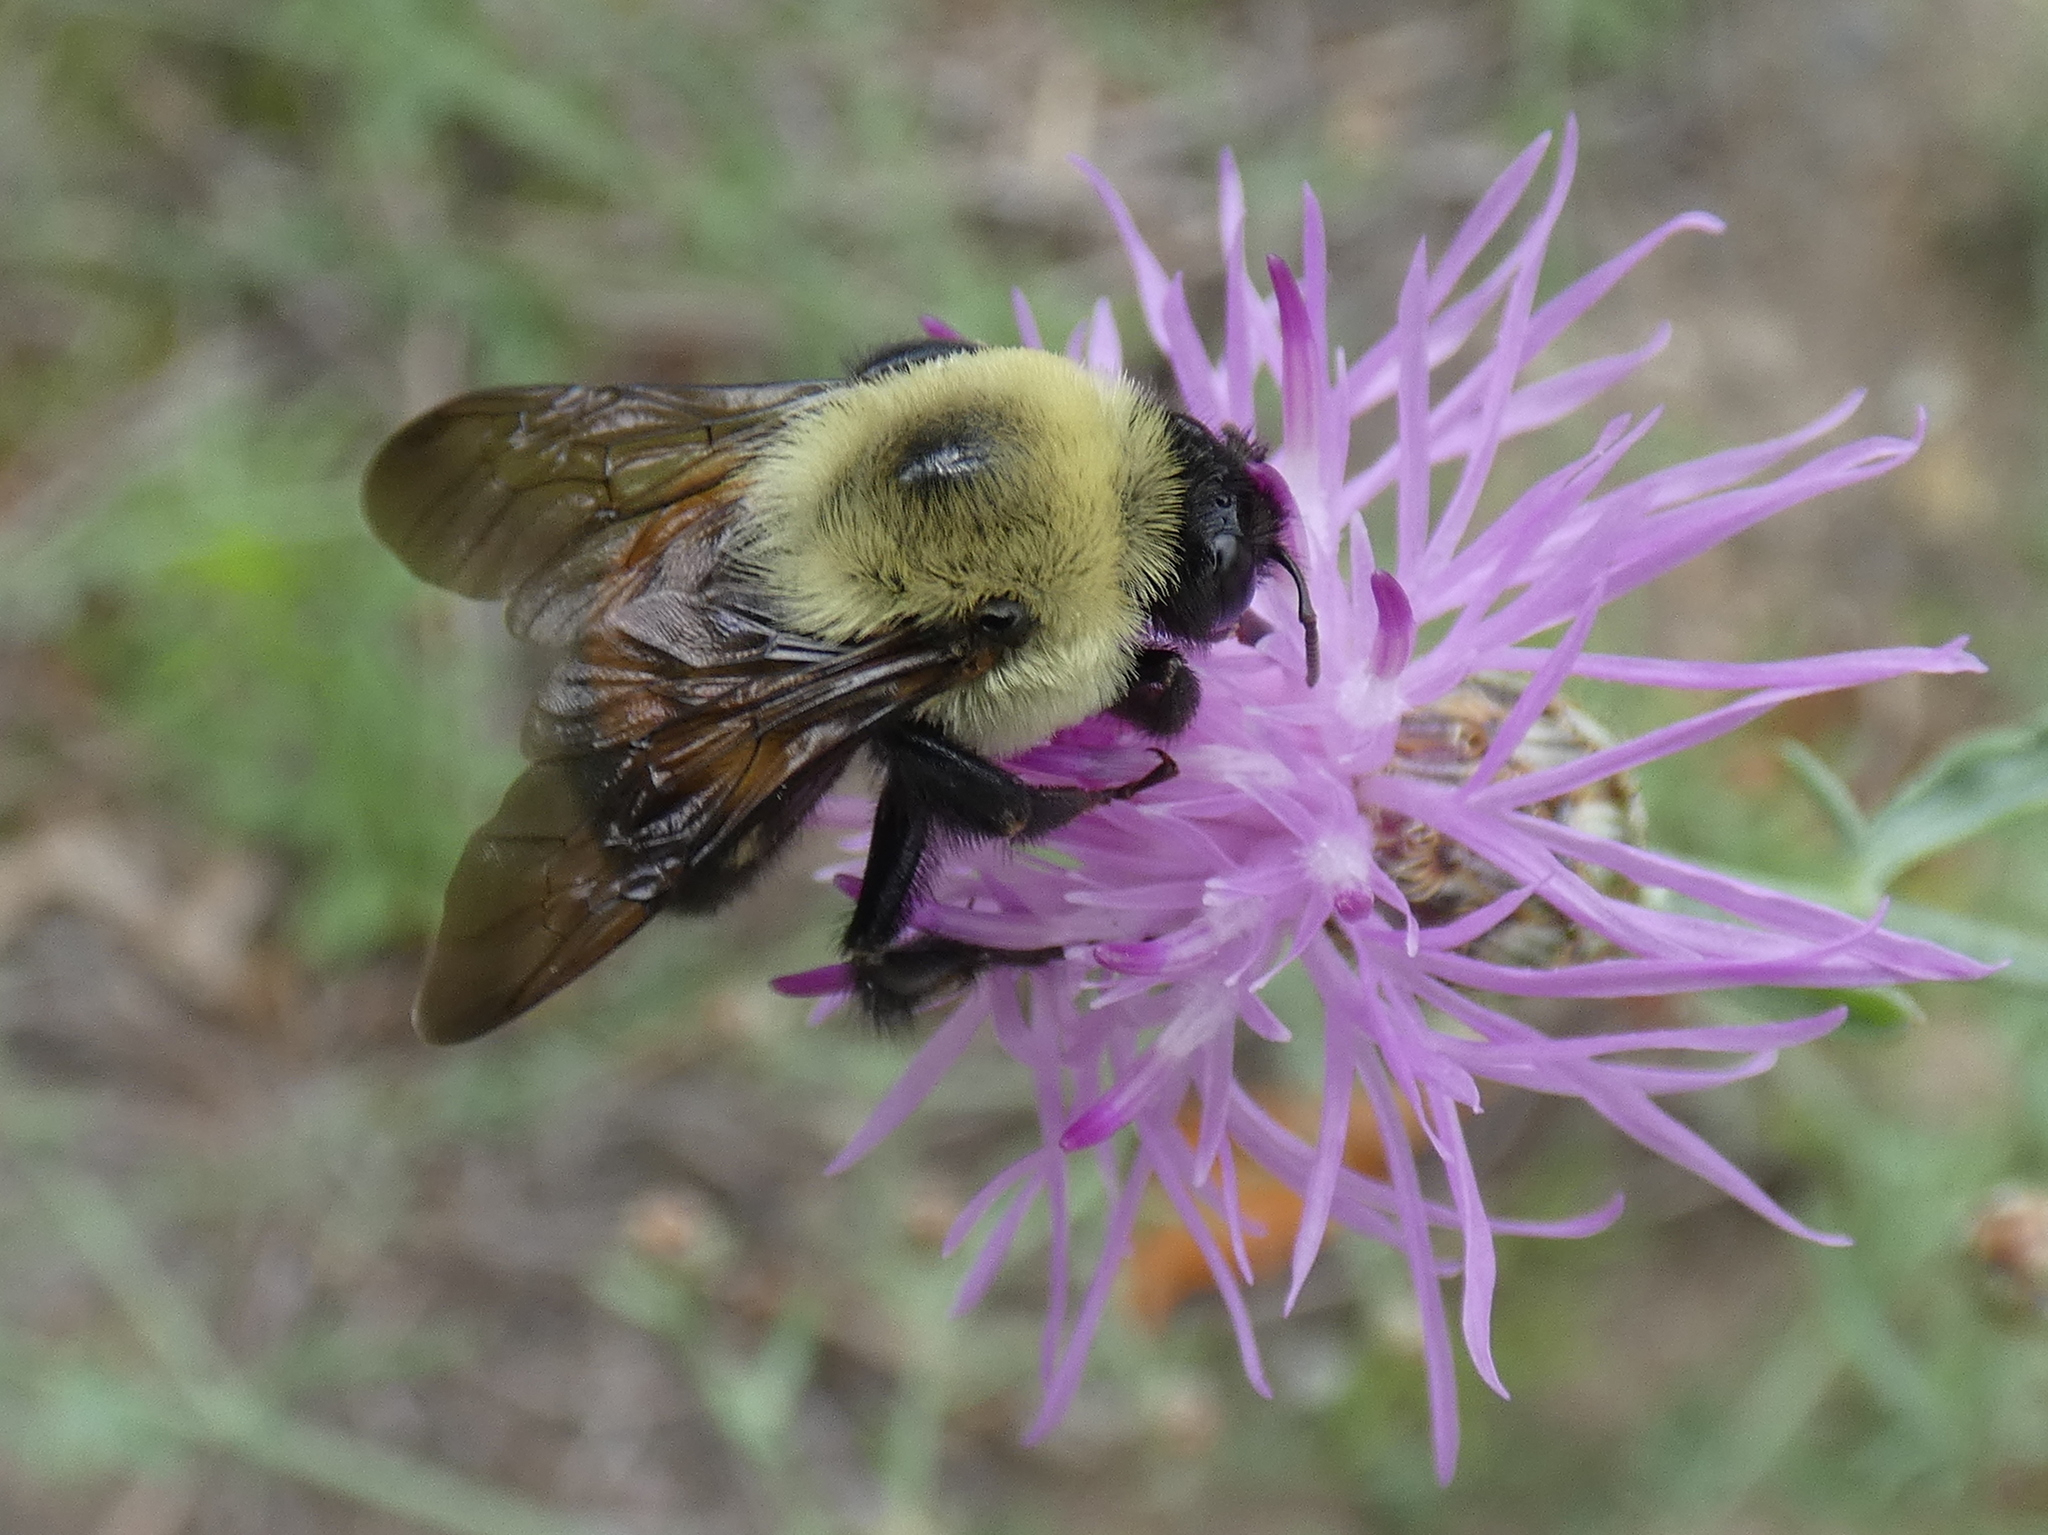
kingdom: Animalia
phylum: Arthropoda
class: Insecta
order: Hymenoptera
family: Apidae
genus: Bombus
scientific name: Bombus griseocollis
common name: Brown-belted bumble bee
